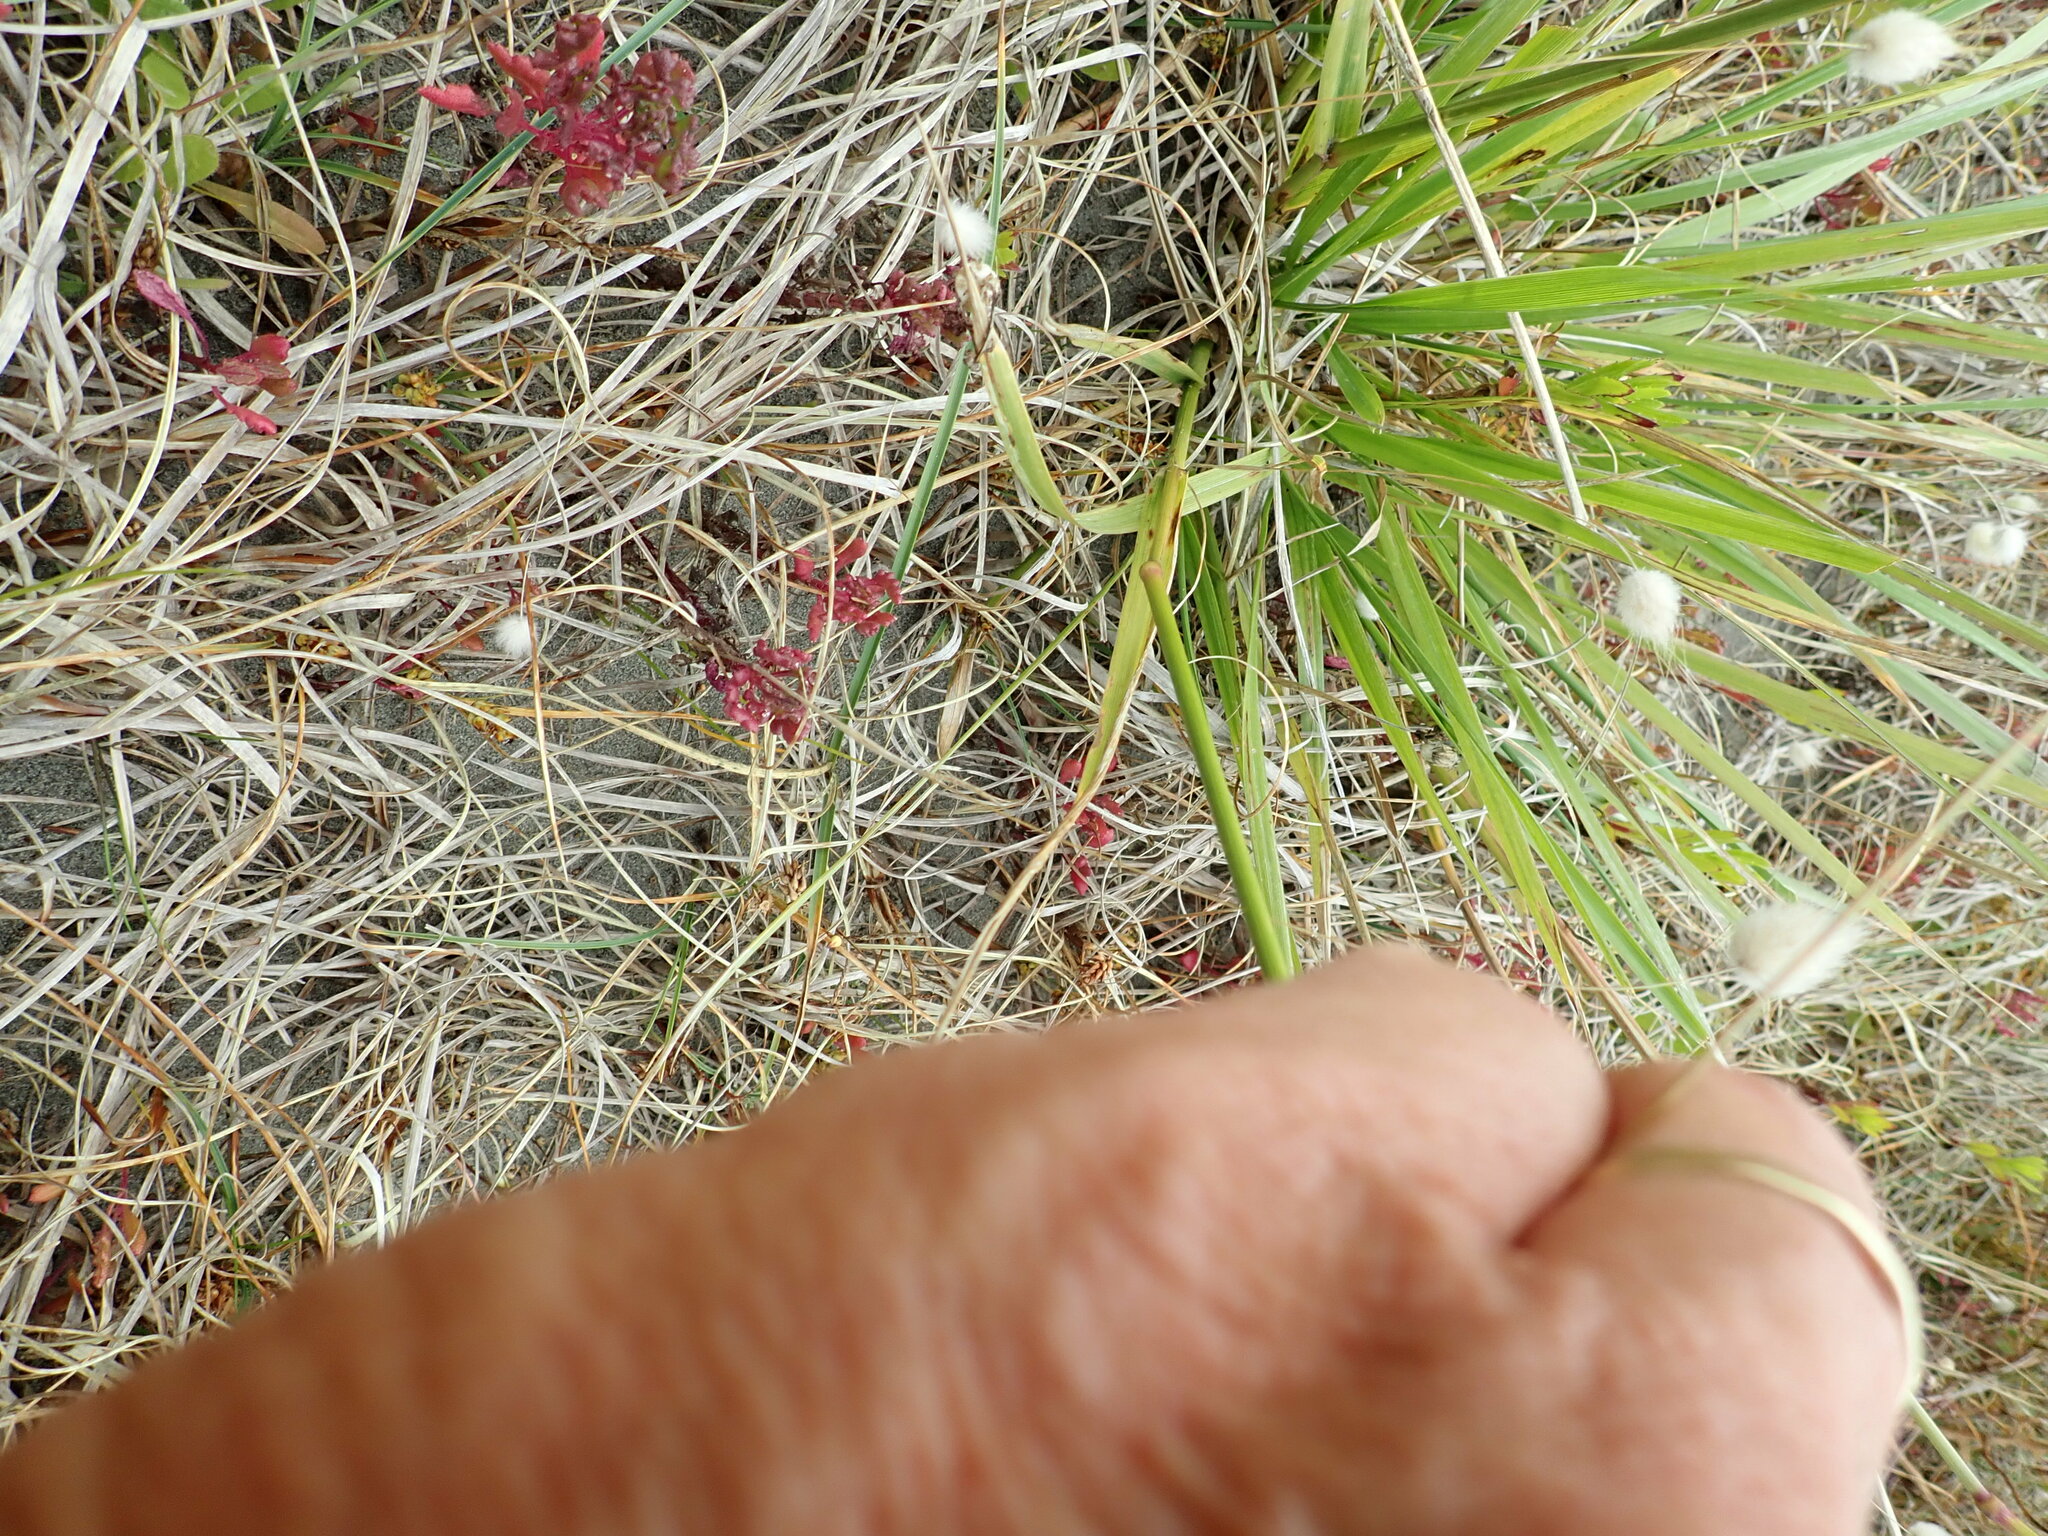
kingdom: Plantae
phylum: Tracheophyta
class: Liliopsida
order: Poales
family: Poaceae
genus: Lolium
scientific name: Lolium arundinaceum
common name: Reed fescue
